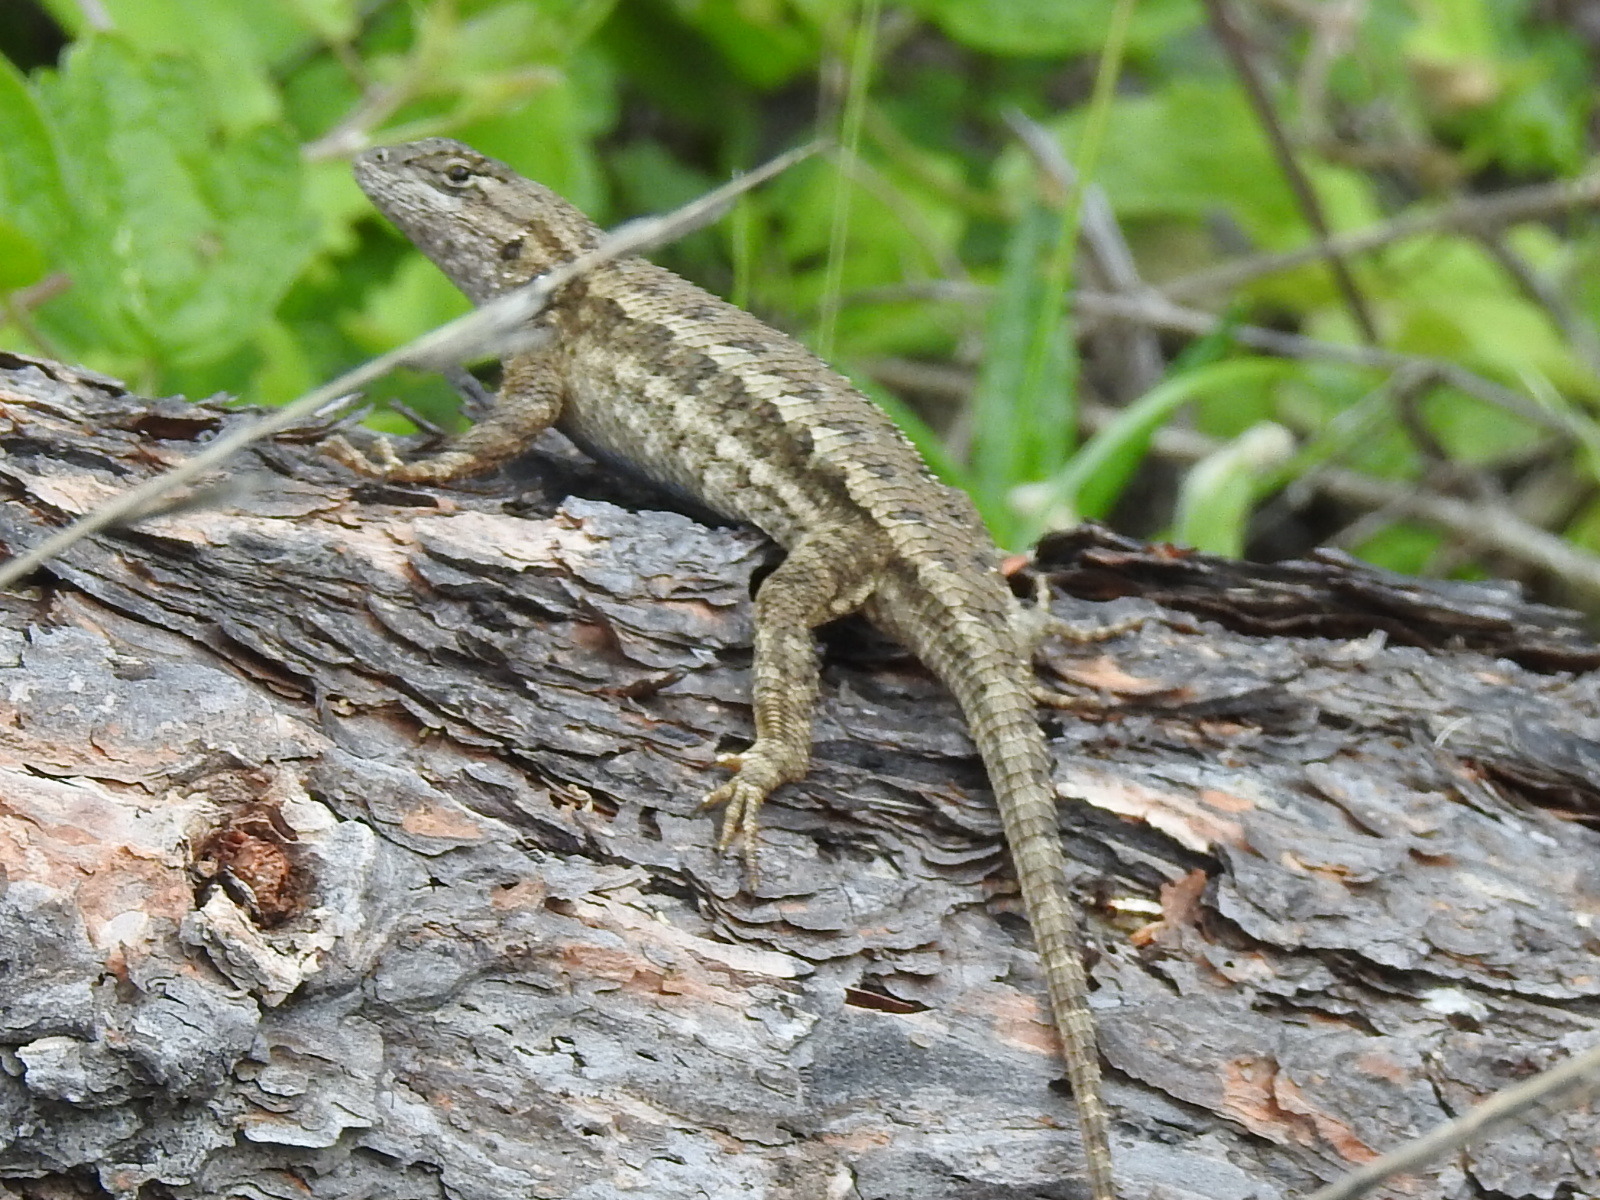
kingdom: Animalia
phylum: Chordata
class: Squamata
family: Phrynosomatidae
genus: Sceloporus
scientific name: Sceloporus occidentalis
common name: Western fence lizard
